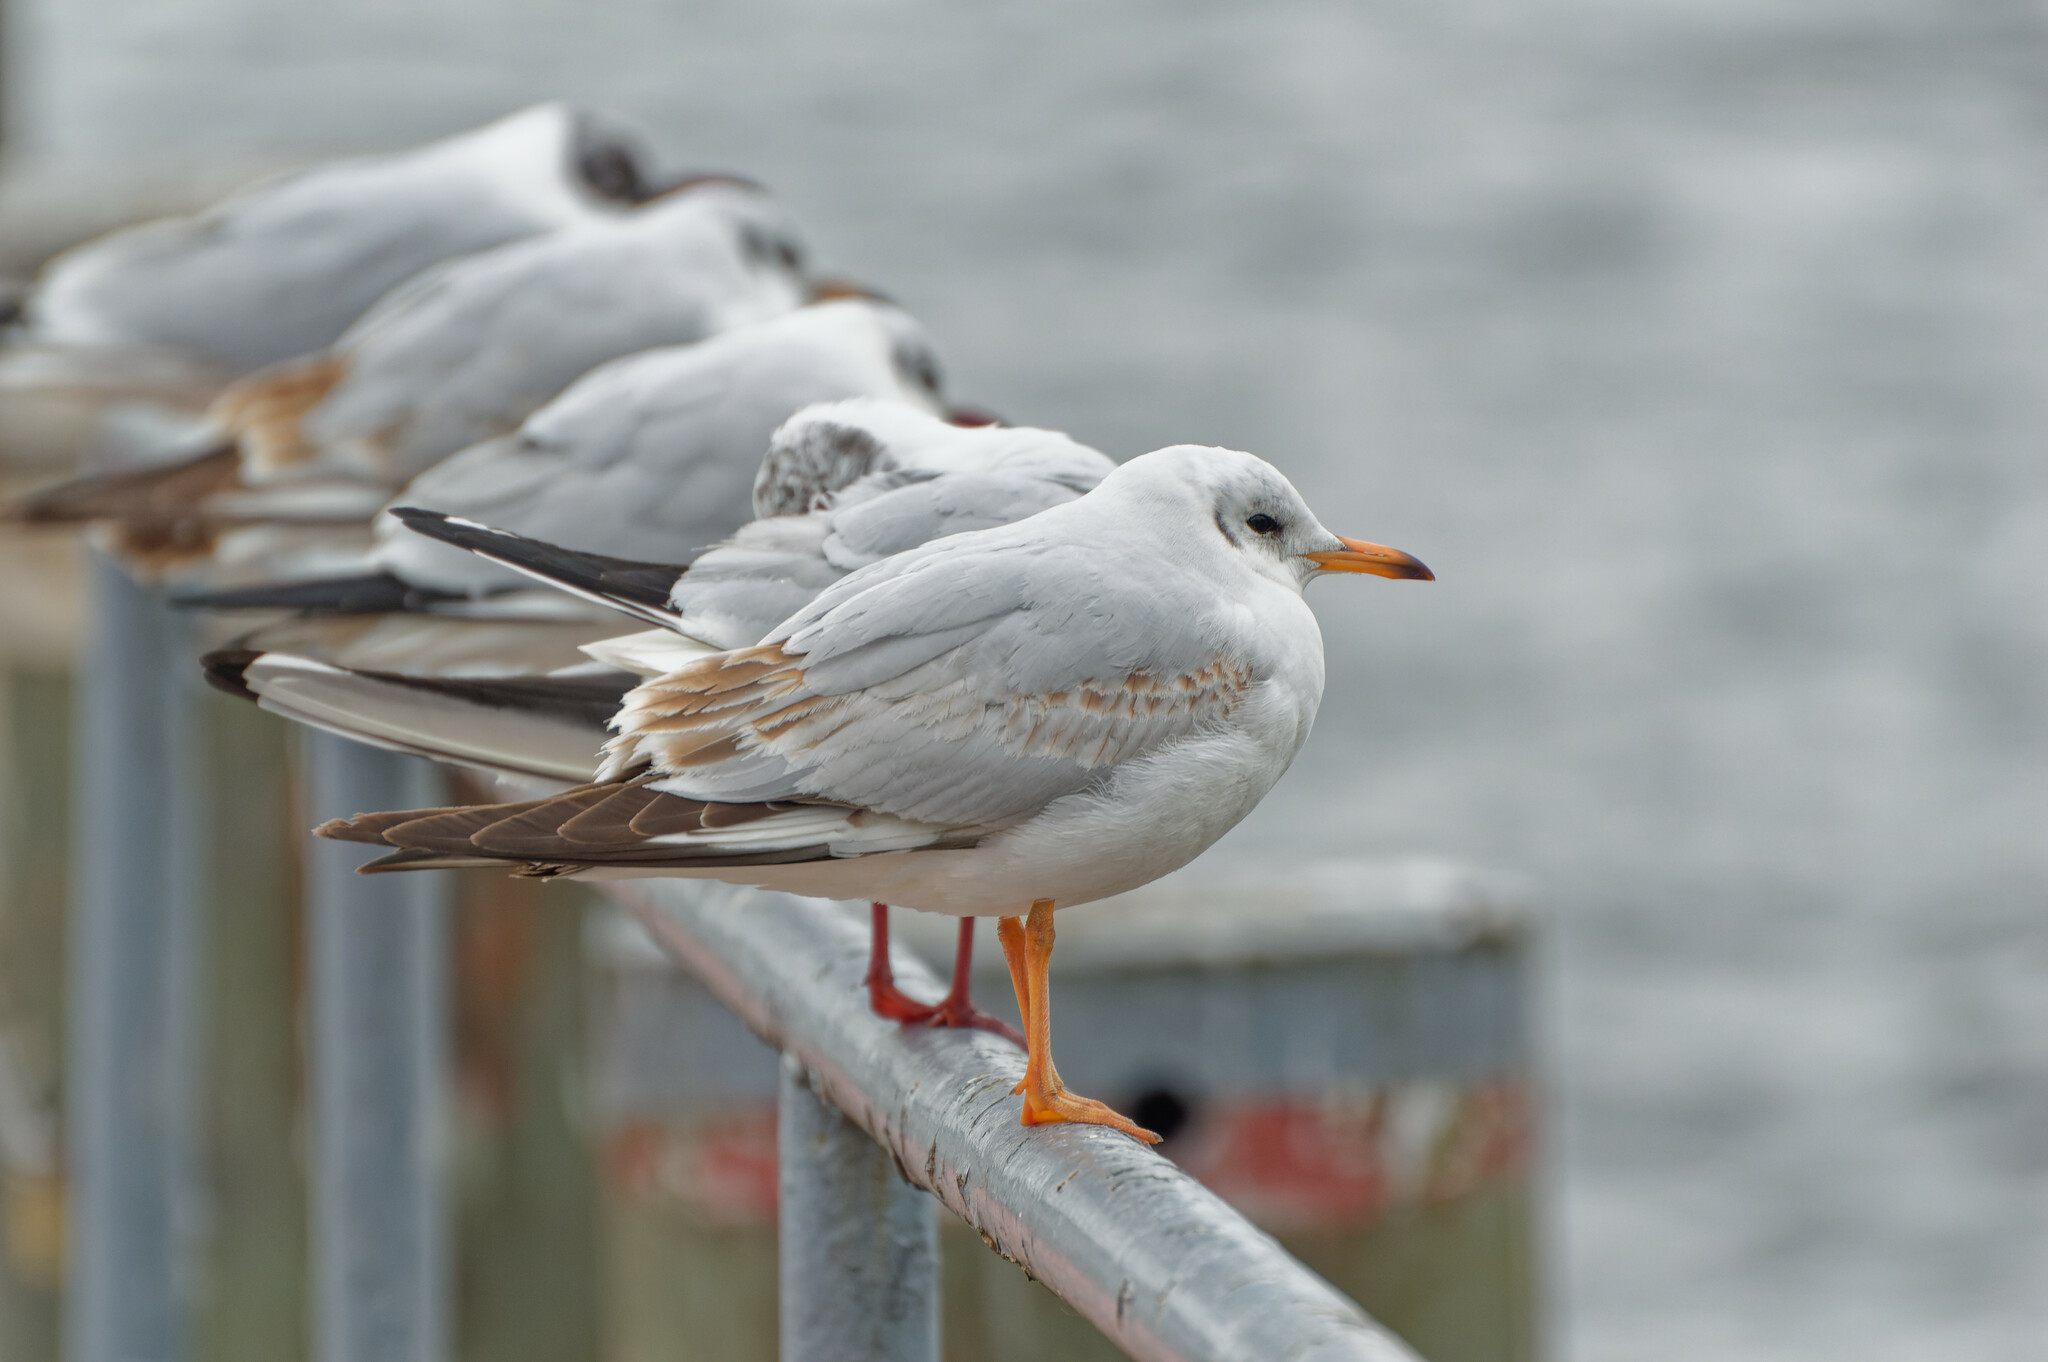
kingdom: Animalia
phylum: Chordata
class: Aves
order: Charadriiformes
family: Laridae
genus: Chroicocephalus
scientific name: Chroicocephalus ridibundus
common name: Black-headed gull
